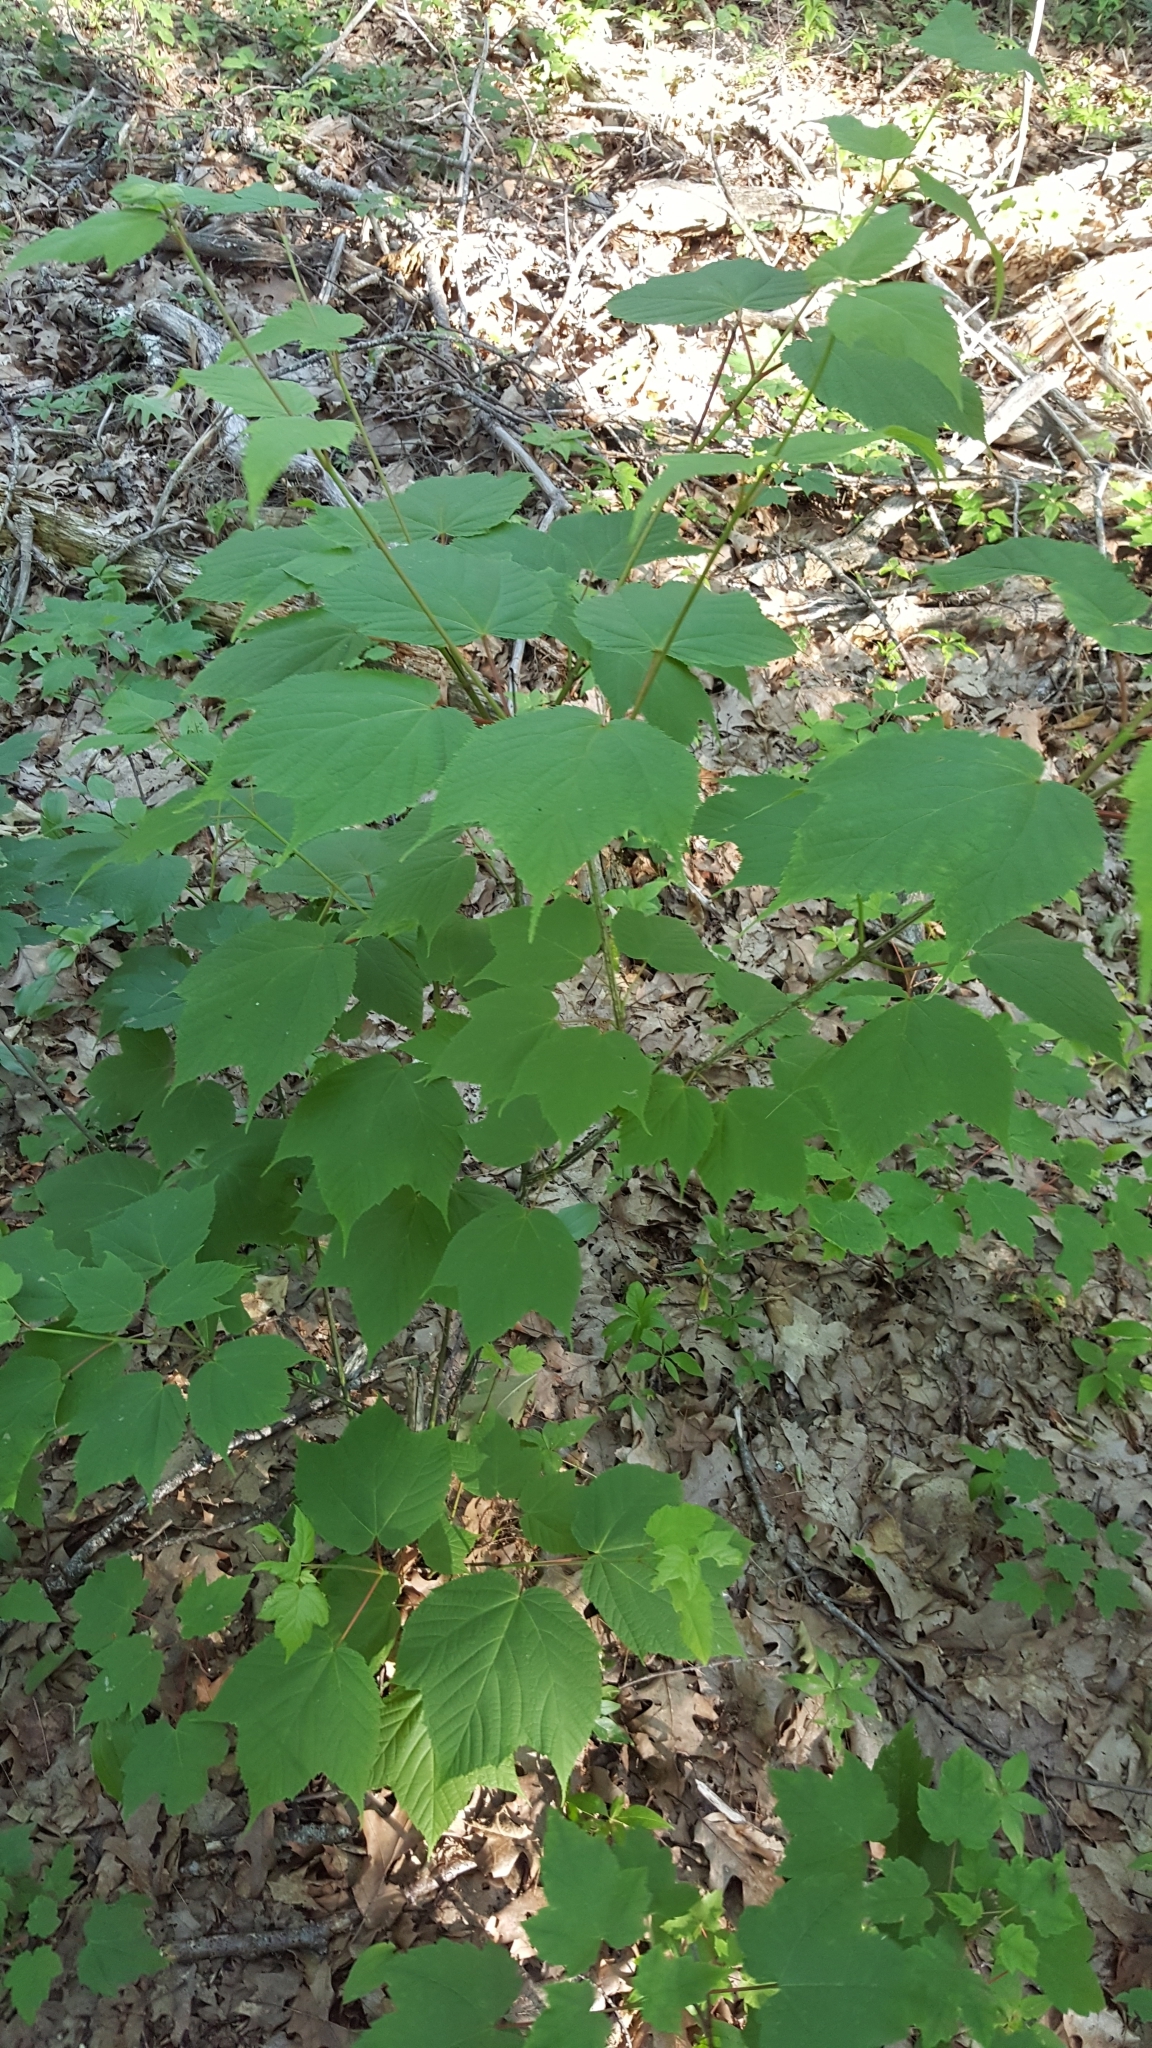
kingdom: Plantae
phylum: Tracheophyta
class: Magnoliopsida
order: Sapindales
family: Sapindaceae
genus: Acer
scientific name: Acer pensylvanicum
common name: Moosewood
